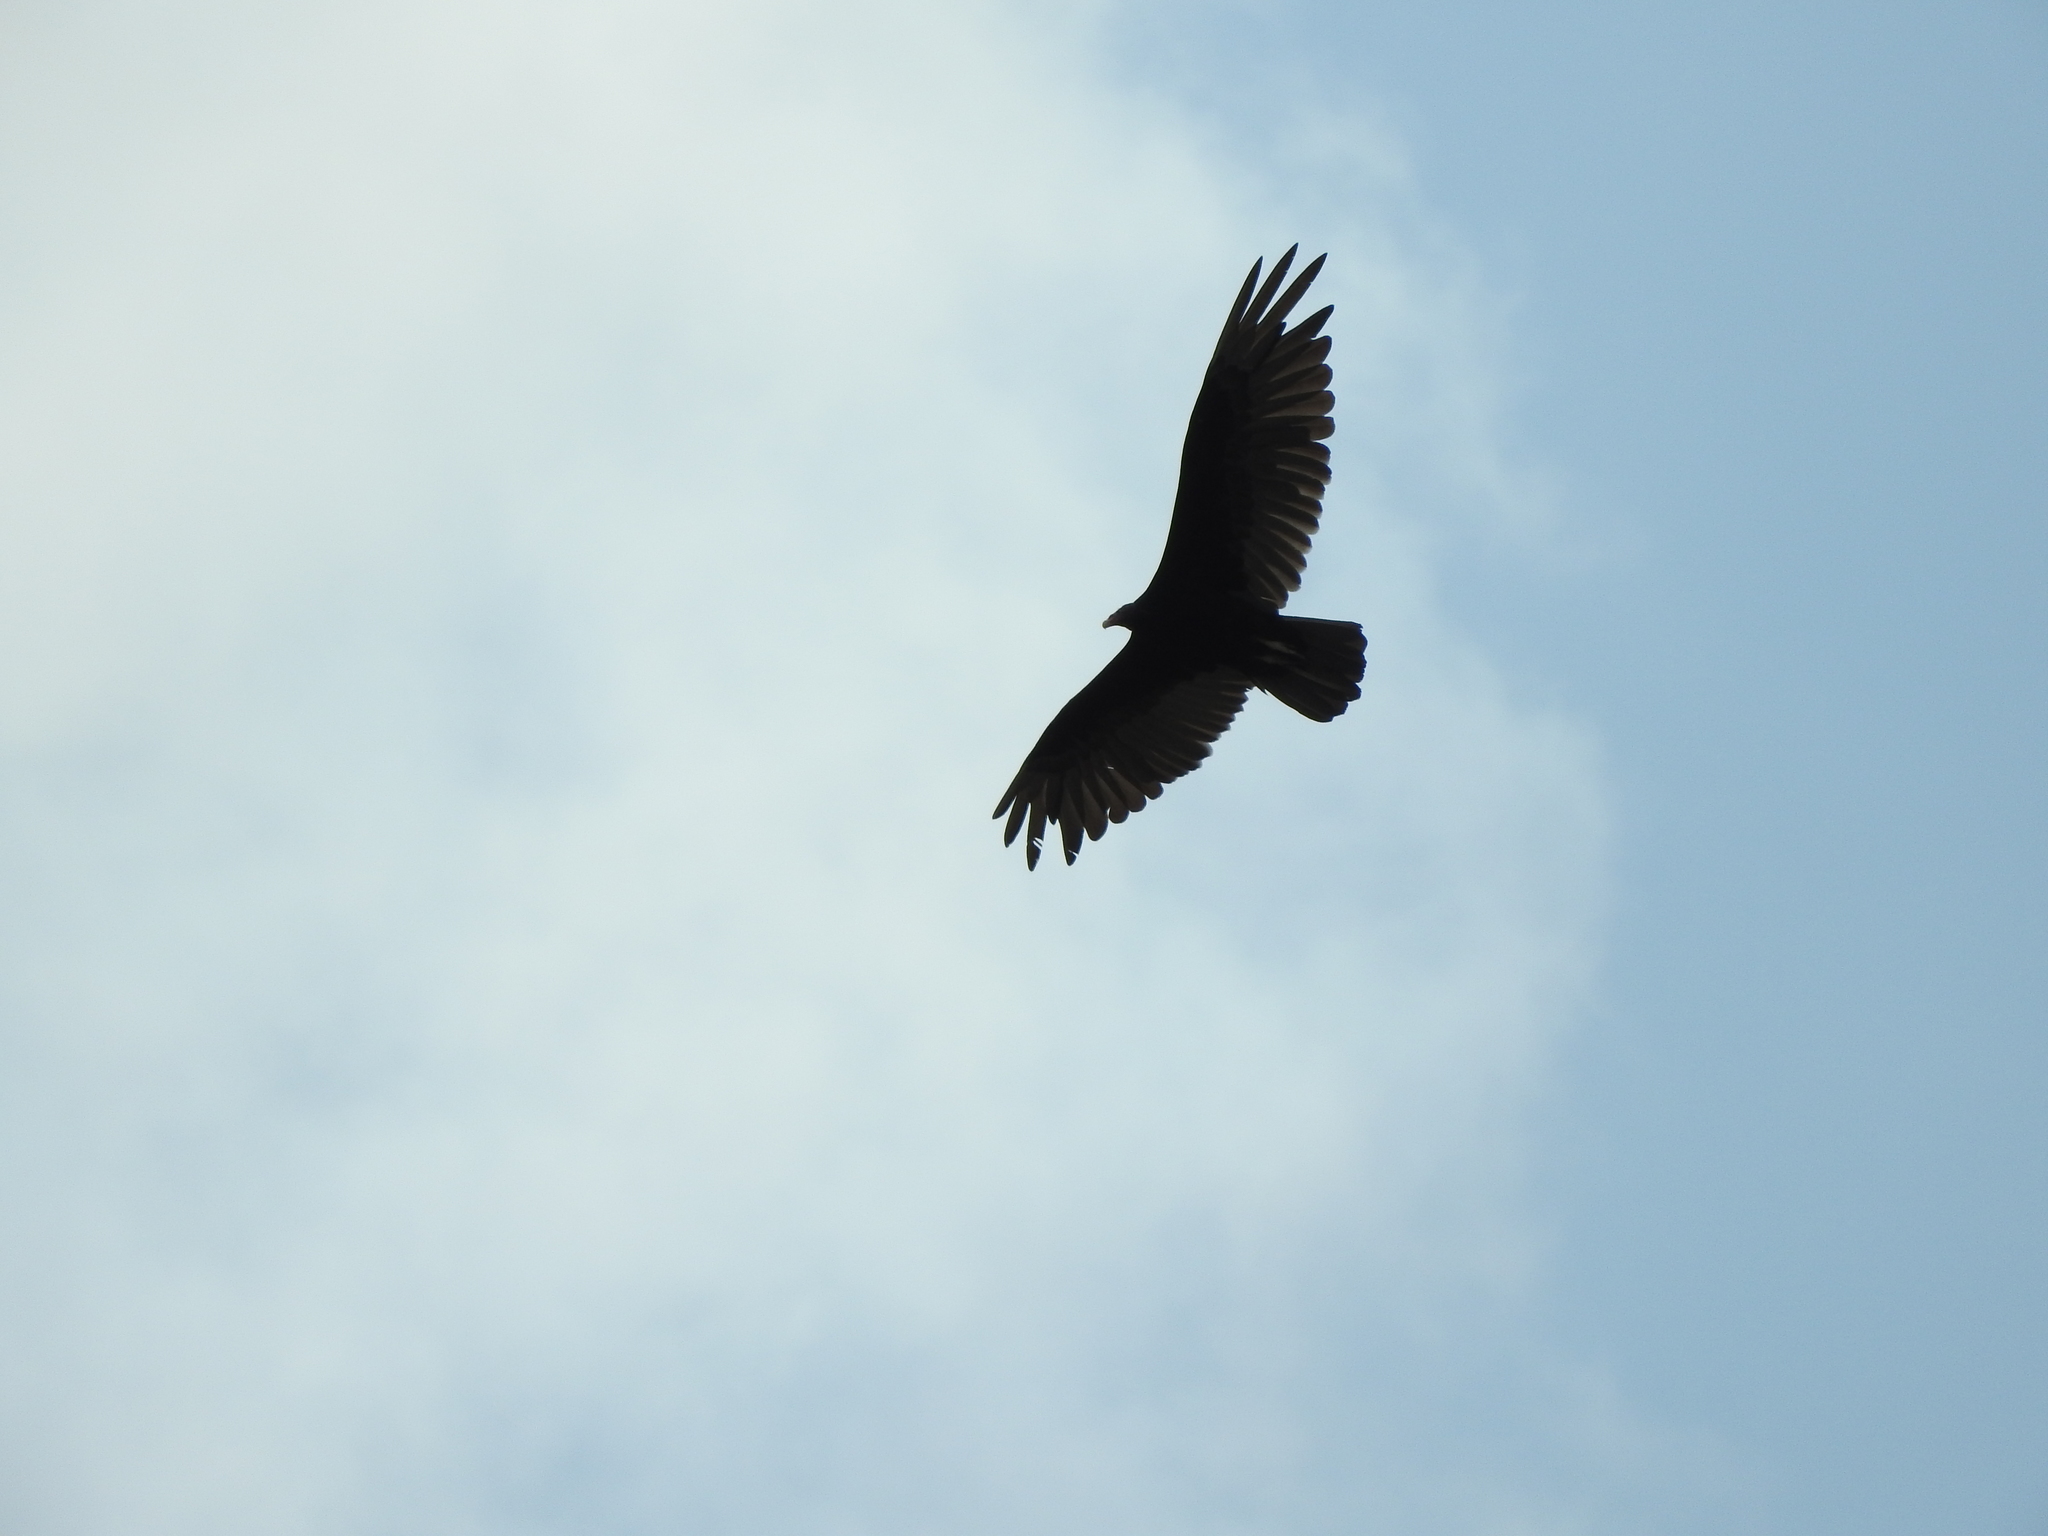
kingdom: Animalia
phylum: Chordata
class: Aves
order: Accipitriformes
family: Cathartidae
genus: Cathartes
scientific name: Cathartes aura
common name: Turkey vulture
